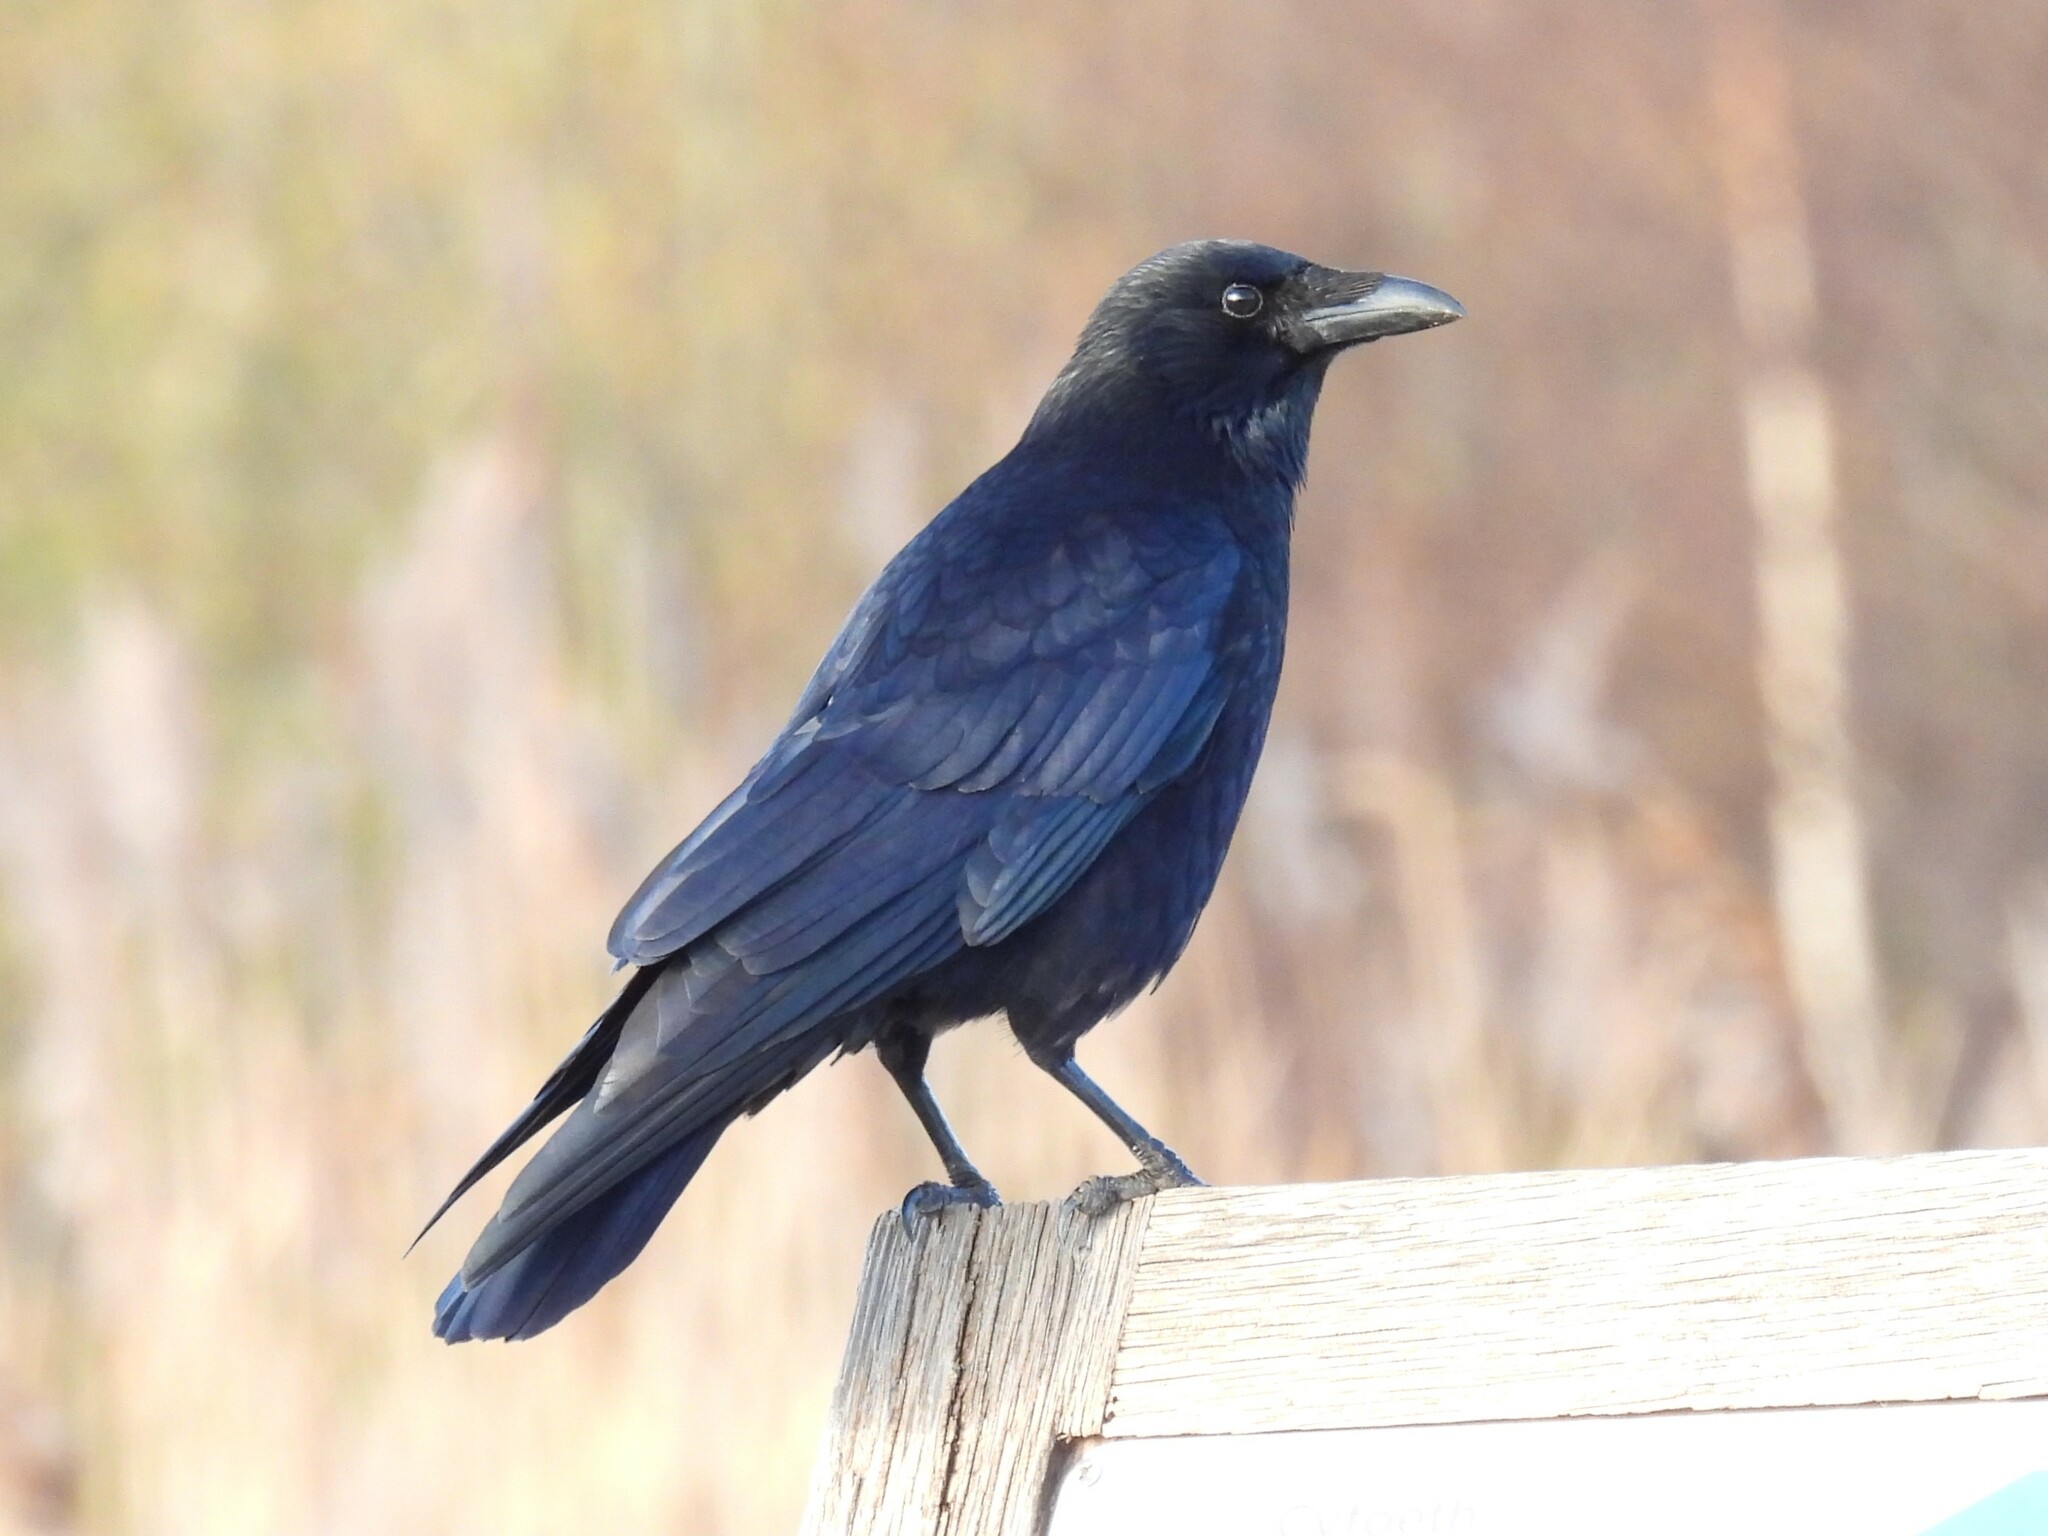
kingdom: Animalia
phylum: Chordata
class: Aves
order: Passeriformes
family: Corvidae
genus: Corvus
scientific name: Corvus corone
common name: Carrion crow
